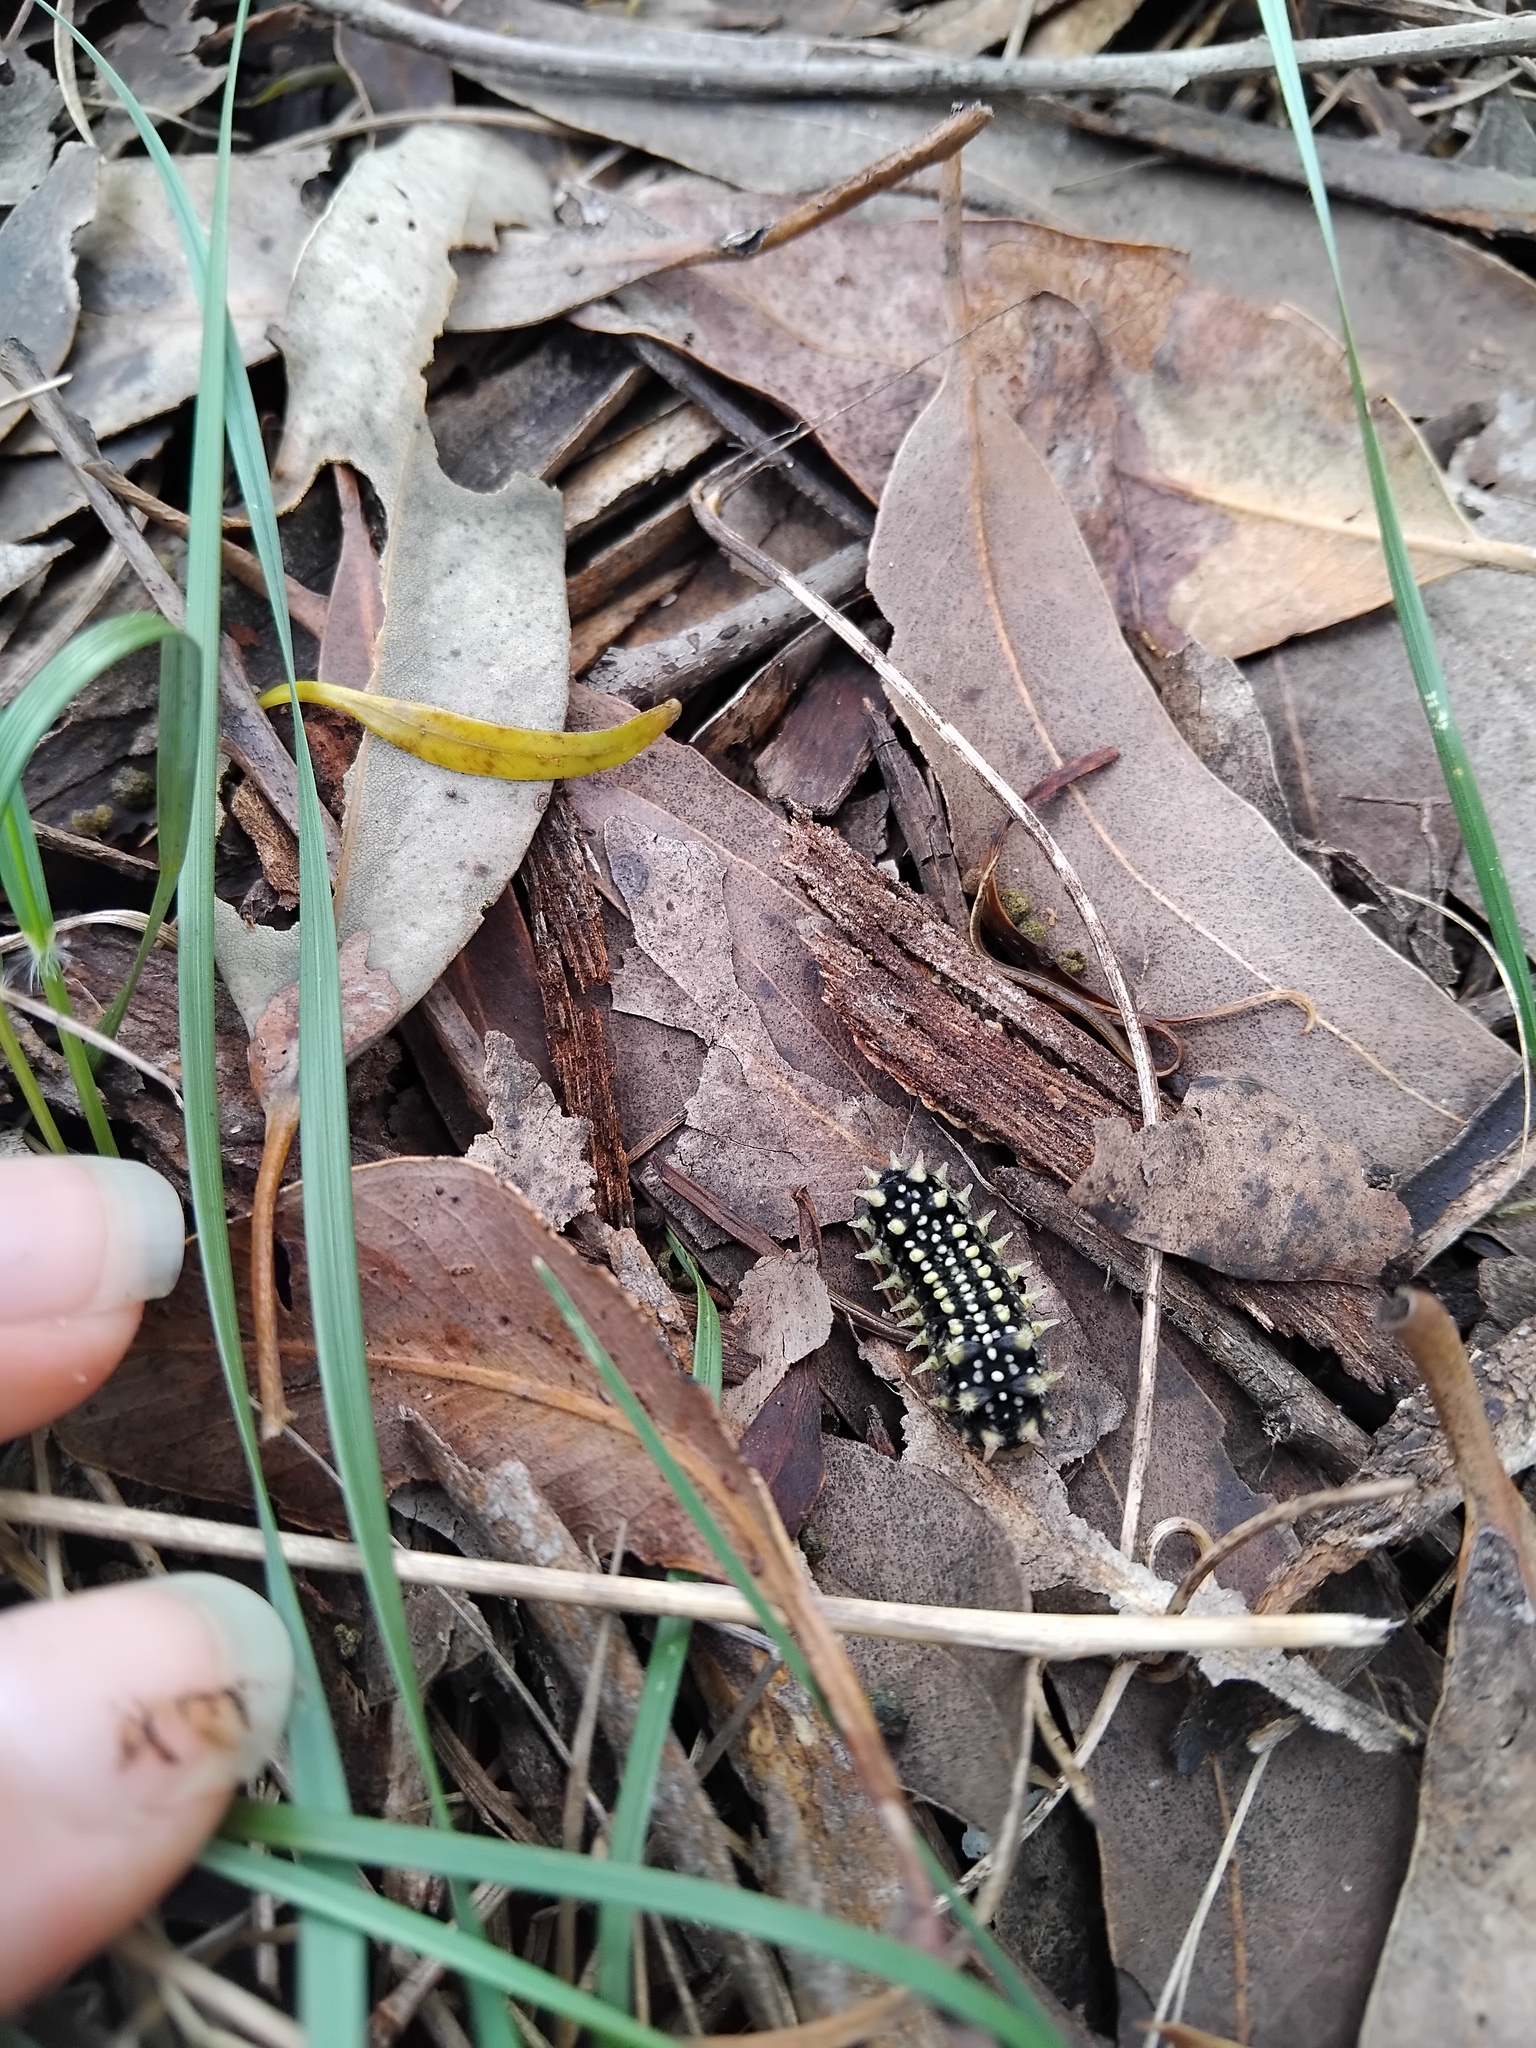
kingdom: Animalia
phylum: Arthropoda
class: Insecta
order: Lepidoptera
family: Limacodidae
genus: Doratifera
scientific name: Doratifera casta
